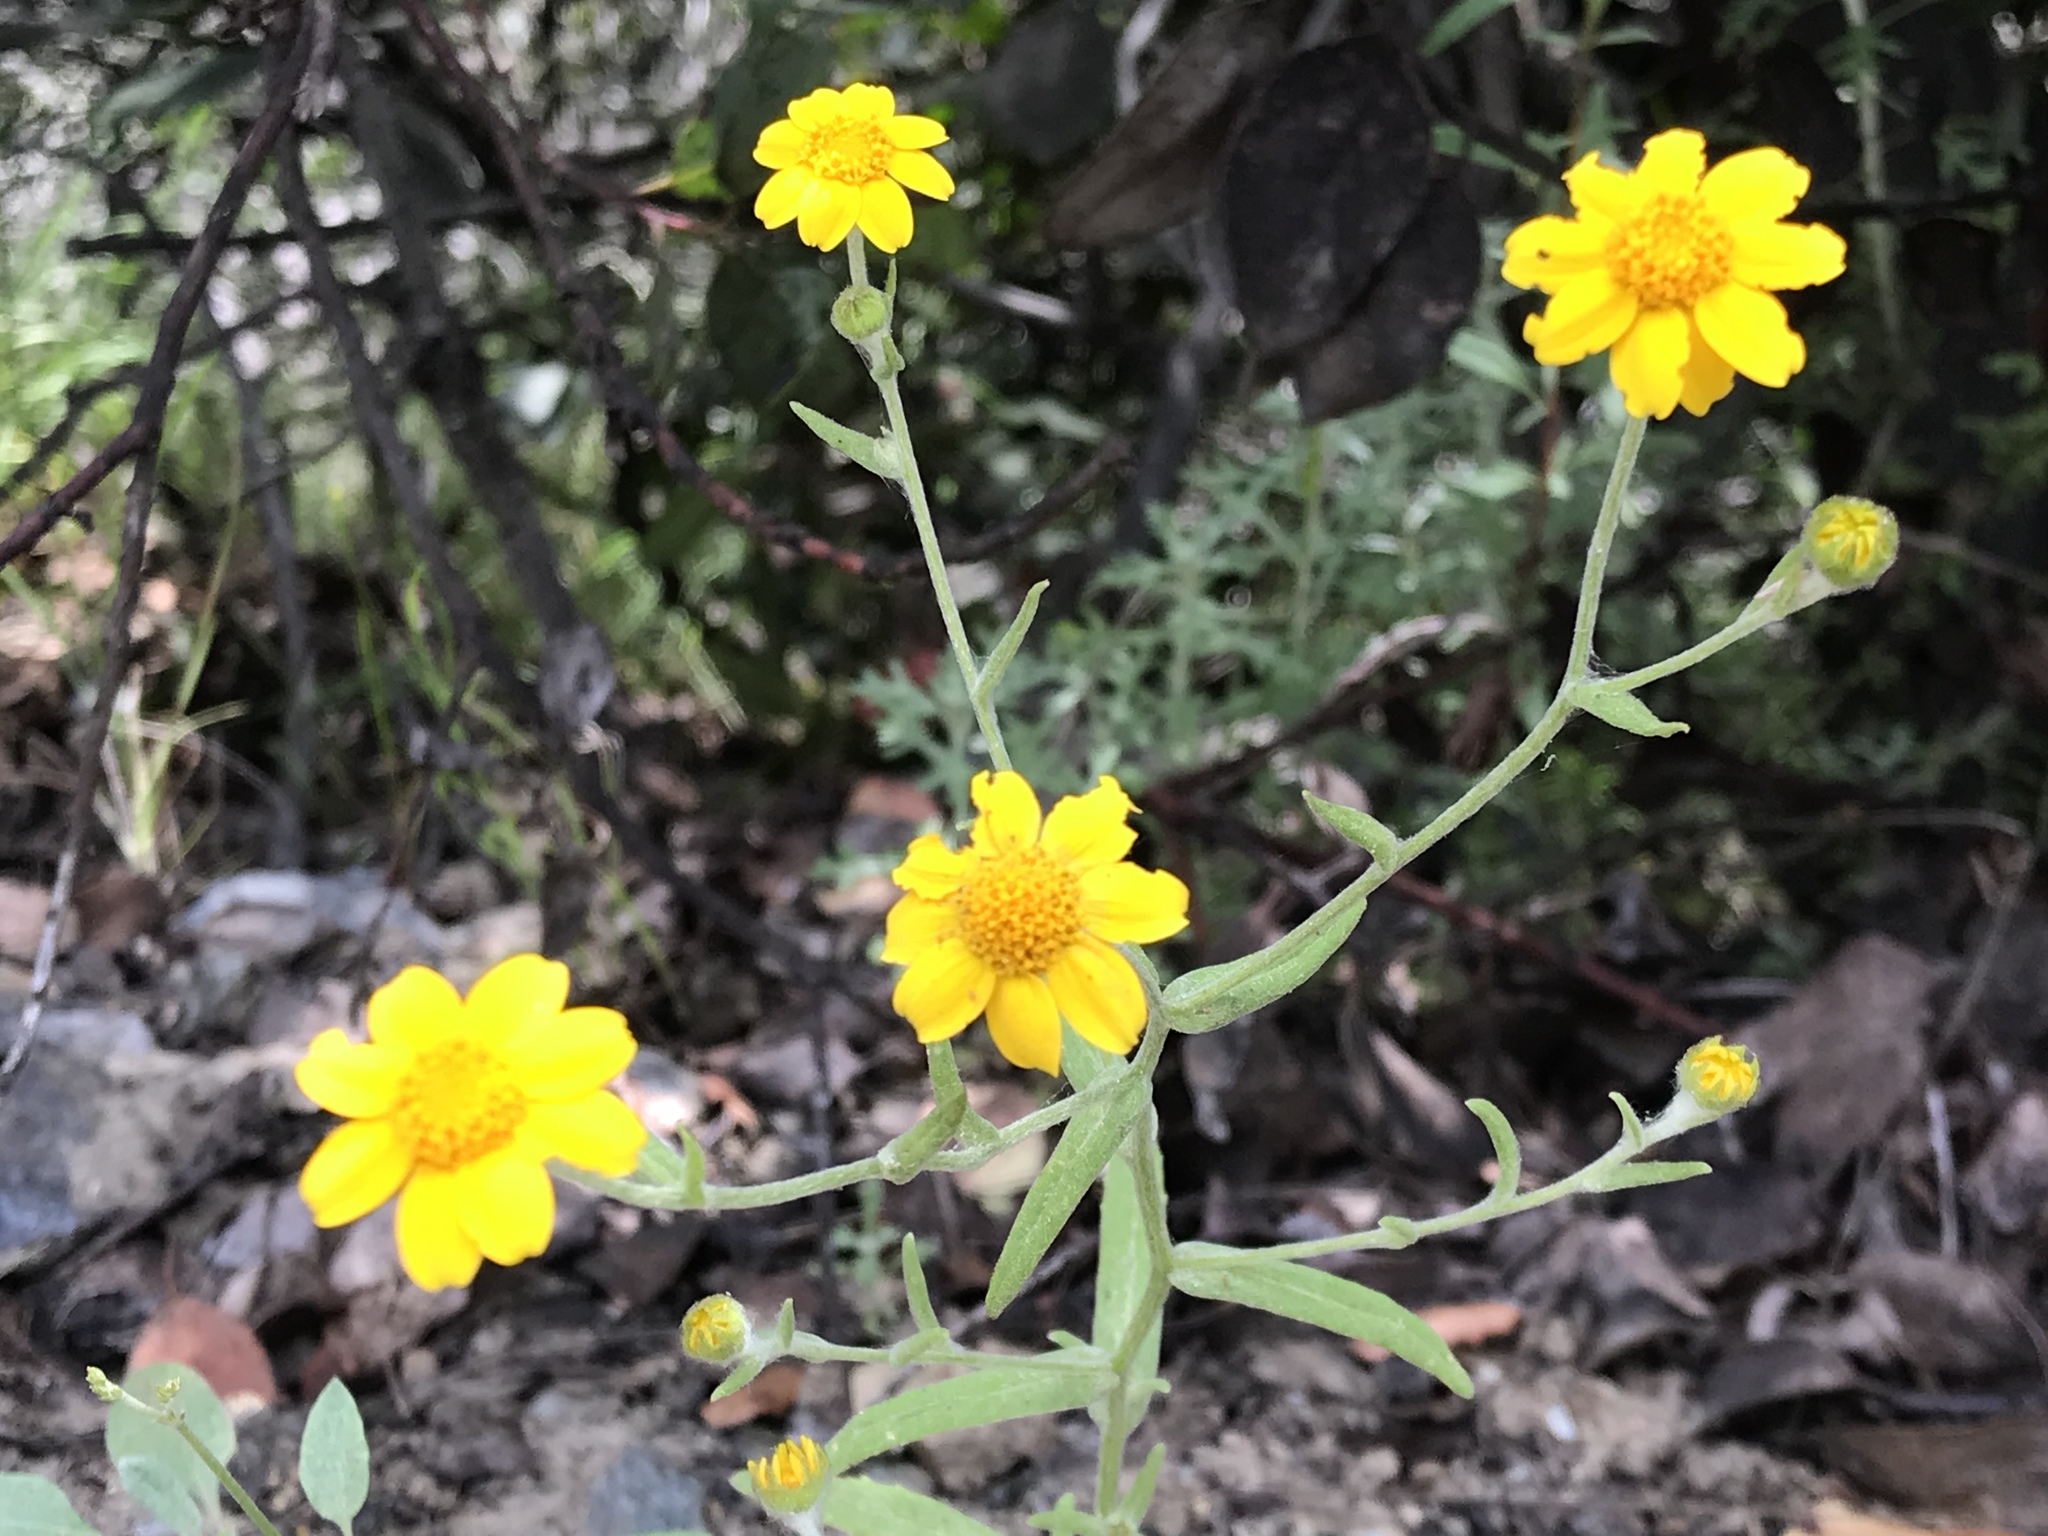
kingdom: Plantae
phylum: Tracheophyta
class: Magnoliopsida
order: Asterales
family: Asteraceae
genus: Monolopia
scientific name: Monolopia gracilens
